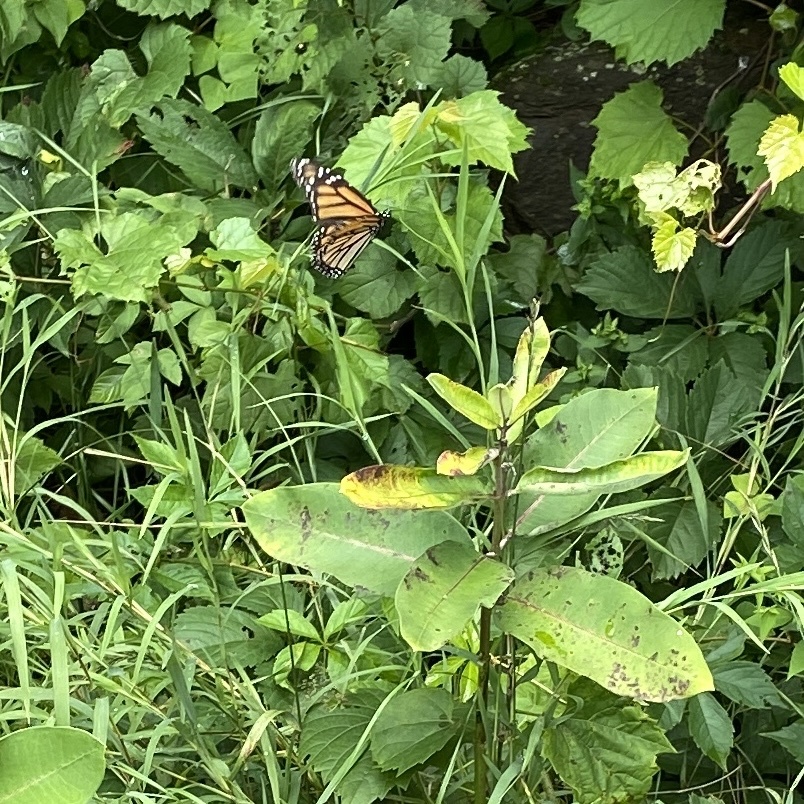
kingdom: Animalia
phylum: Arthropoda
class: Insecta
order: Lepidoptera
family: Nymphalidae
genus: Danaus
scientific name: Danaus plexippus
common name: Monarch
